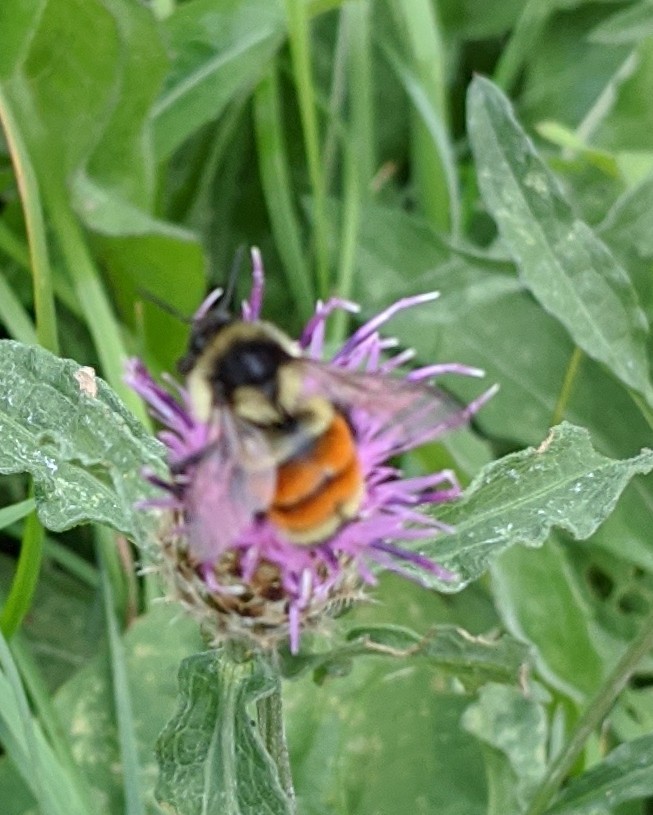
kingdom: Animalia
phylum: Arthropoda
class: Insecta
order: Hymenoptera
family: Apidae
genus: Bombus
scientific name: Bombus ternarius
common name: Tri-colored bumble bee
